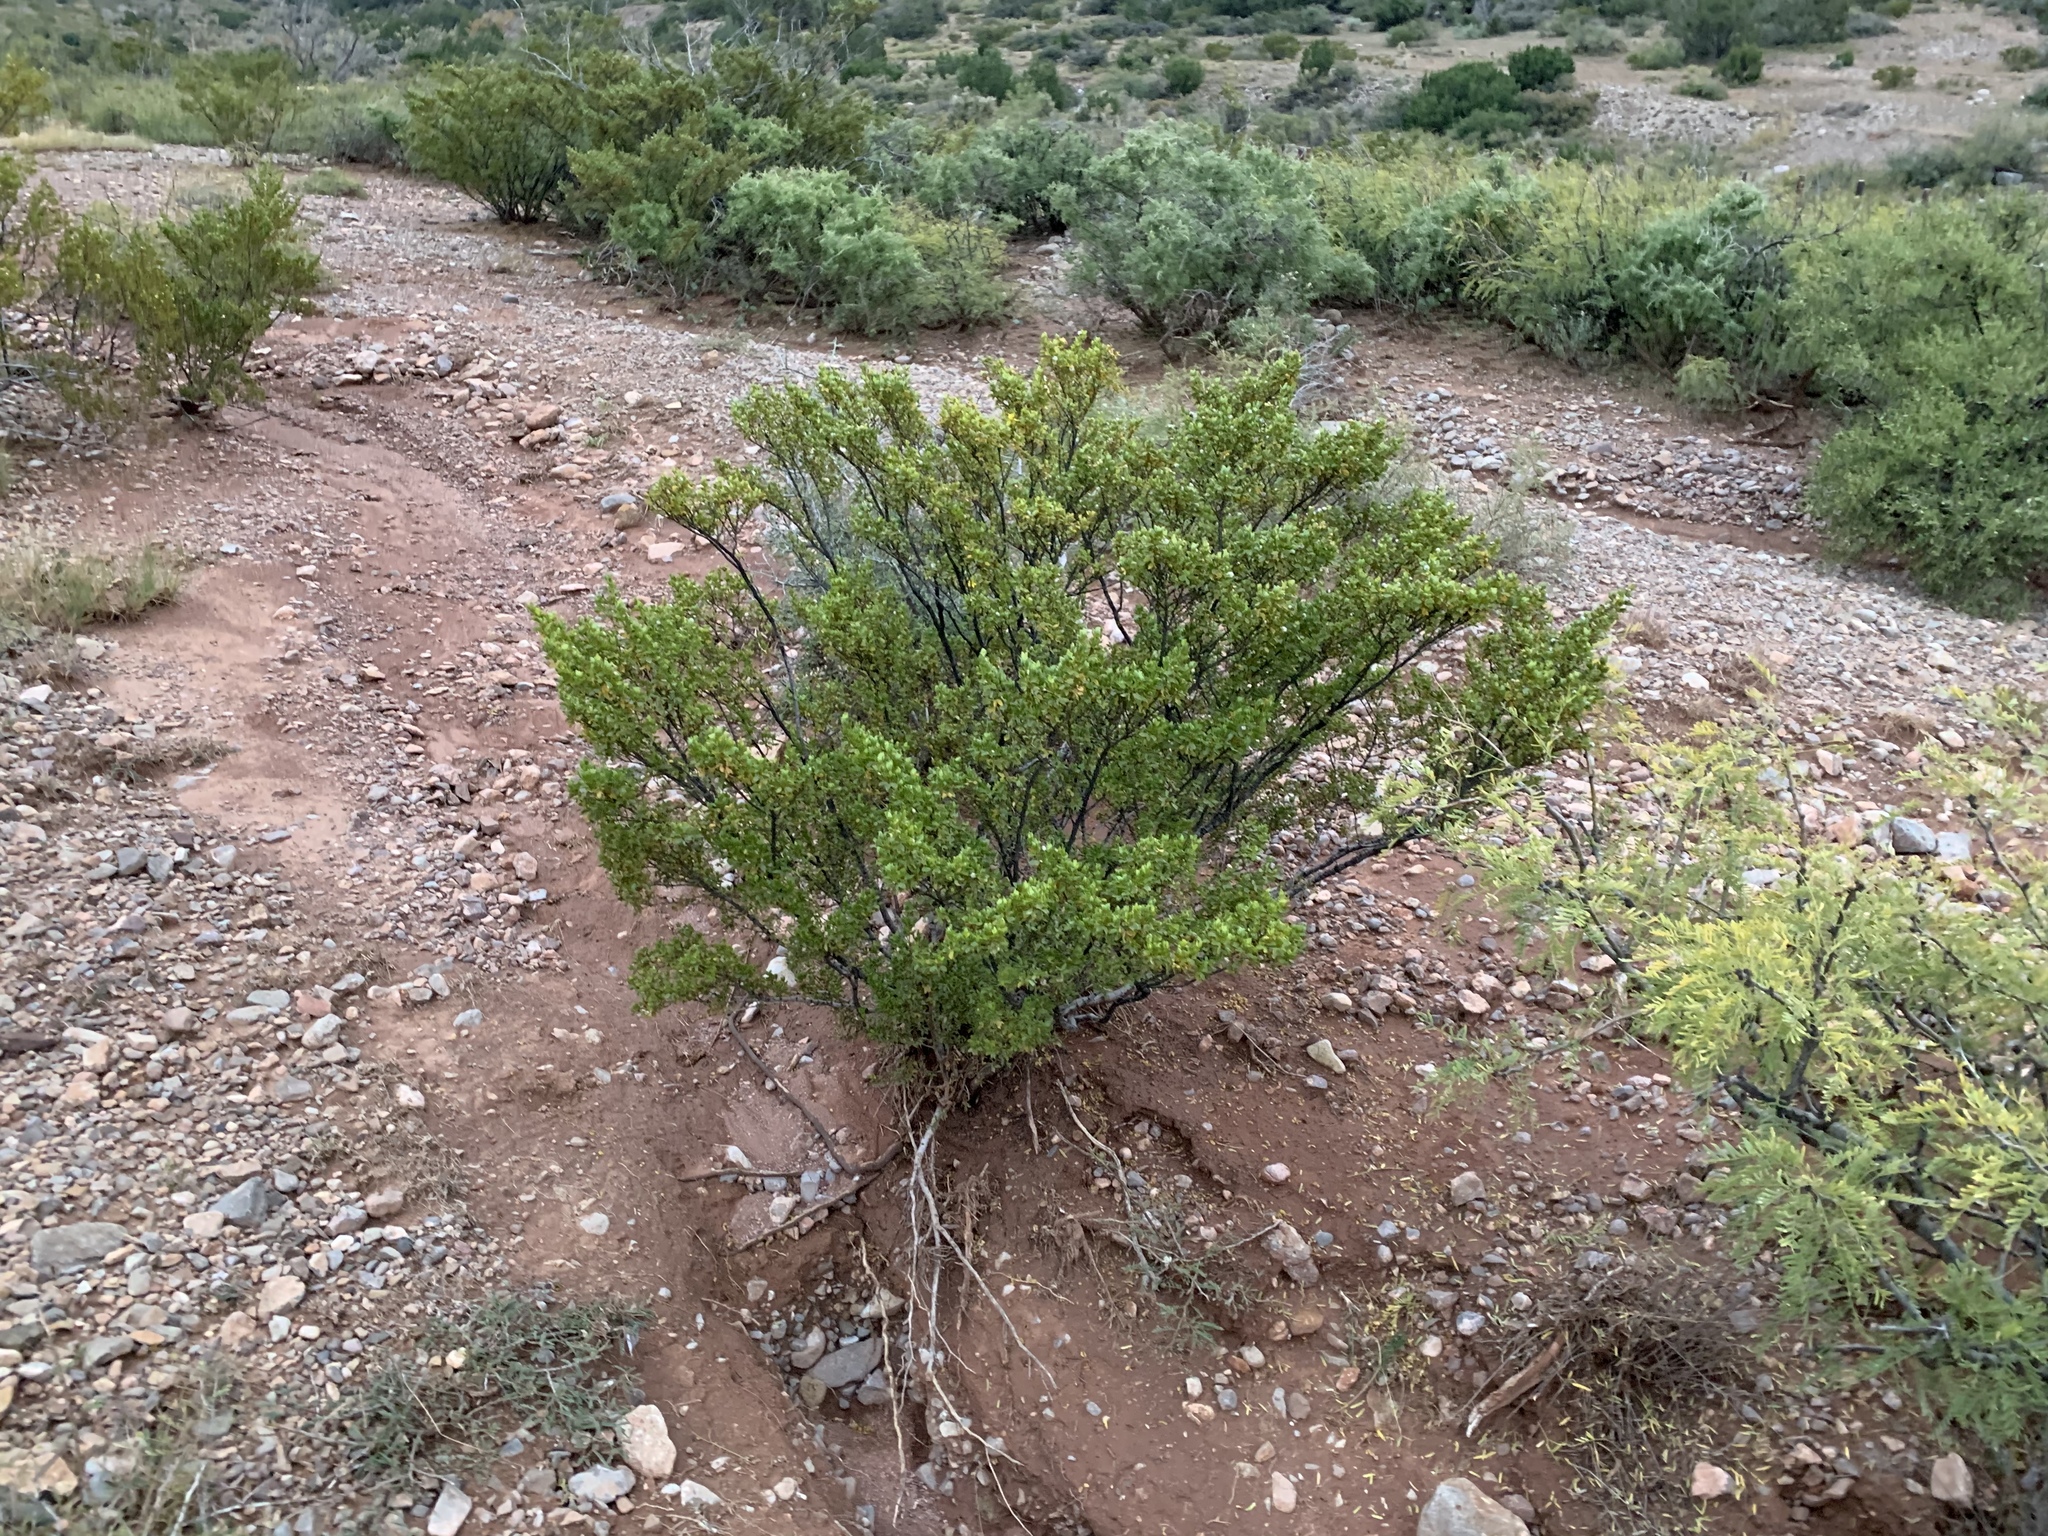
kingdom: Plantae
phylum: Tracheophyta
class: Magnoliopsida
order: Zygophyllales
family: Zygophyllaceae
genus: Larrea
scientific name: Larrea tridentata
